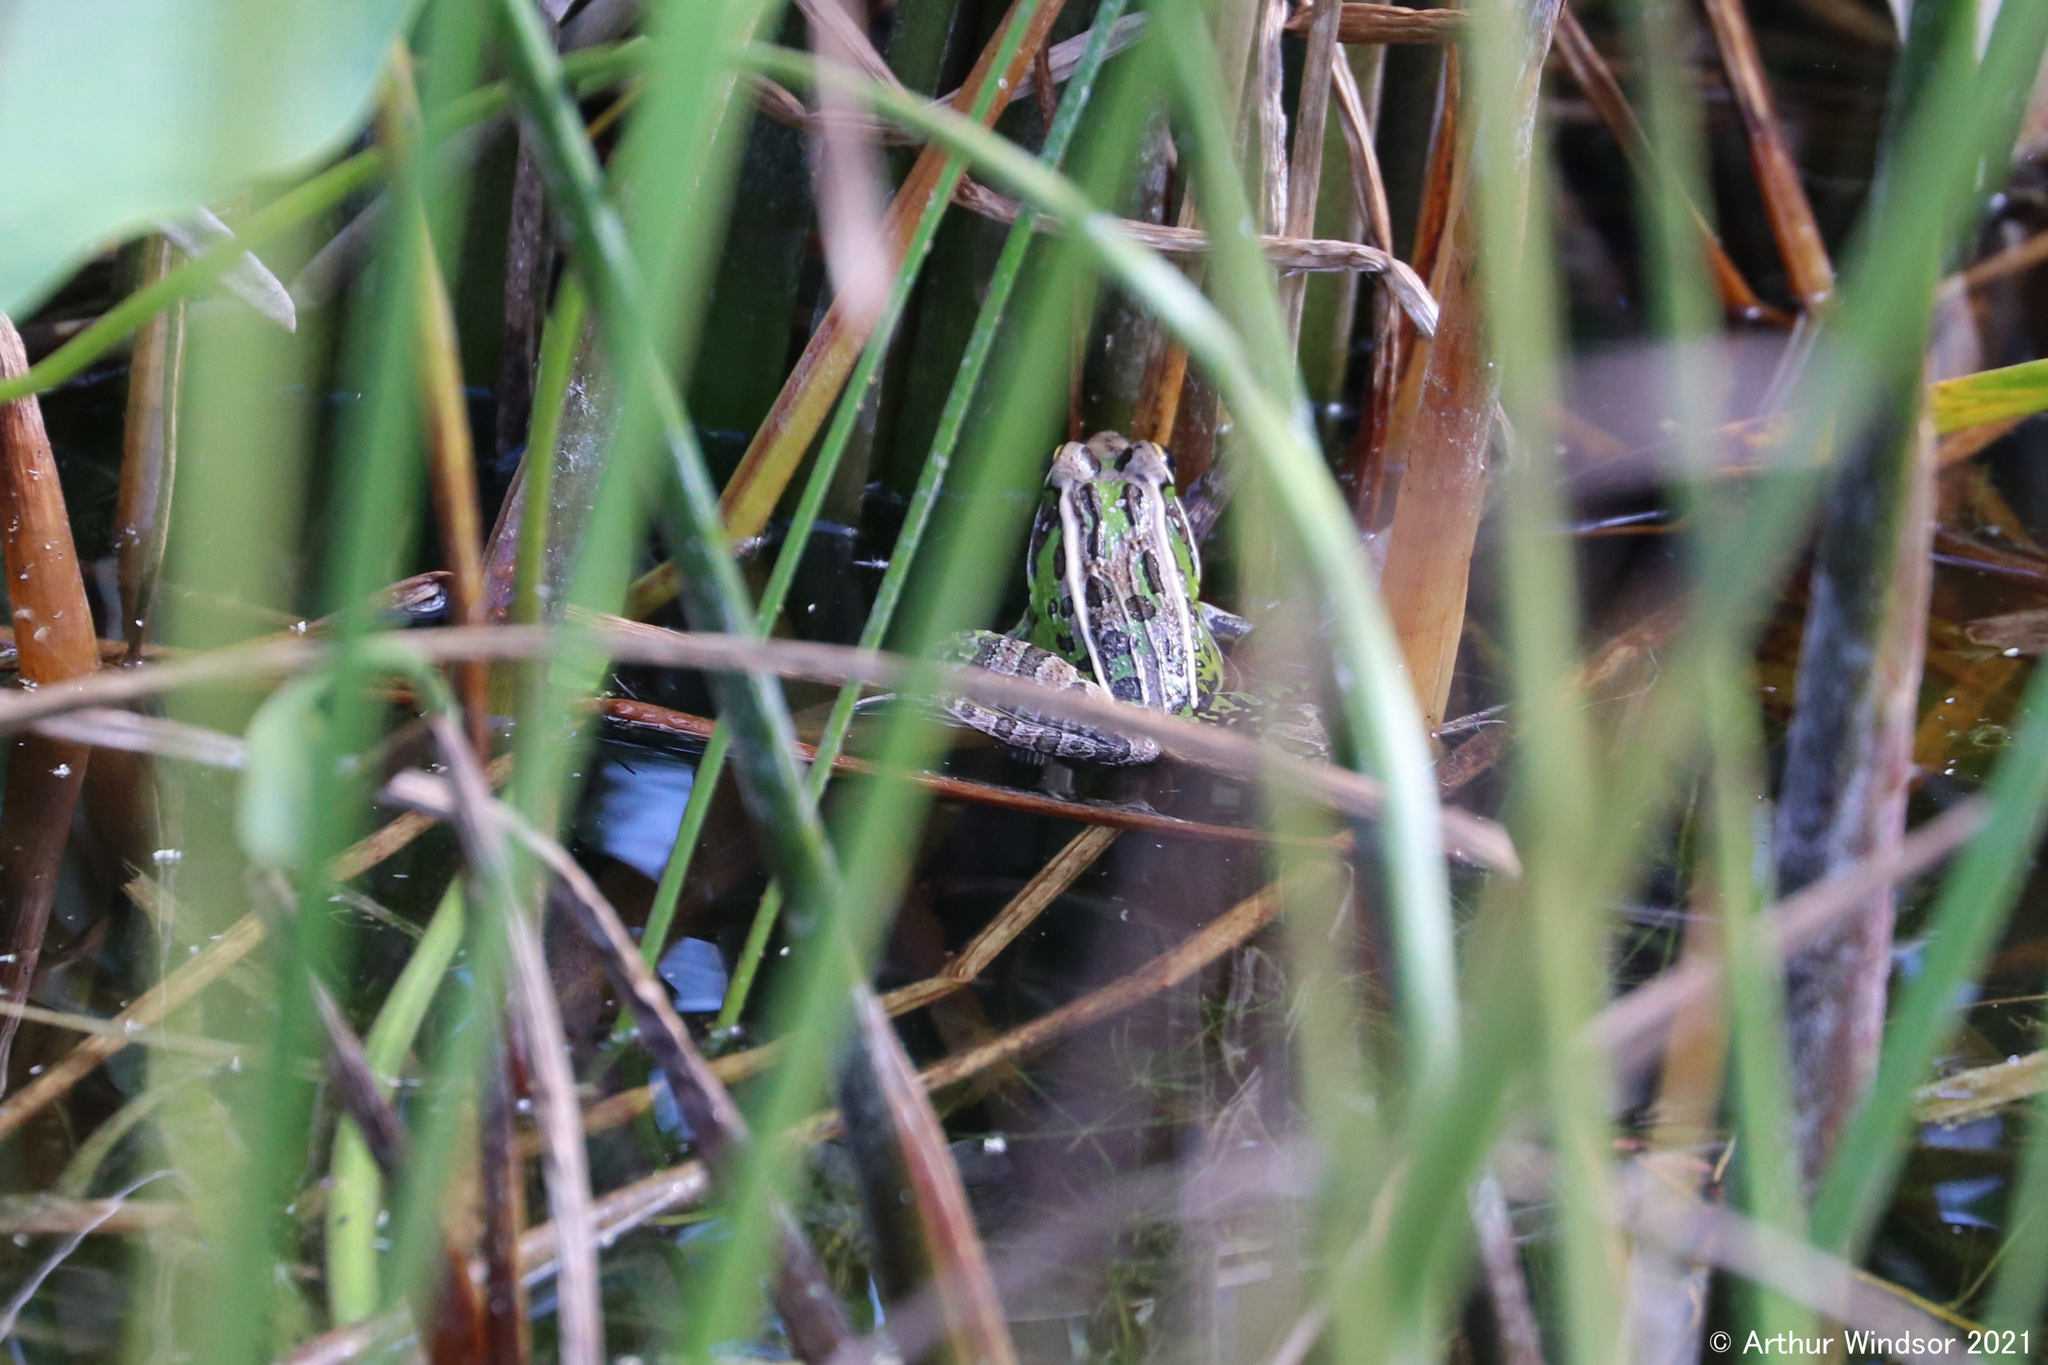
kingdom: Animalia
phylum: Chordata
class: Amphibia
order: Anura
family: Ranidae
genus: Lithobates
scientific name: Lithobates sphenocephalus
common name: Southern leopard frog
